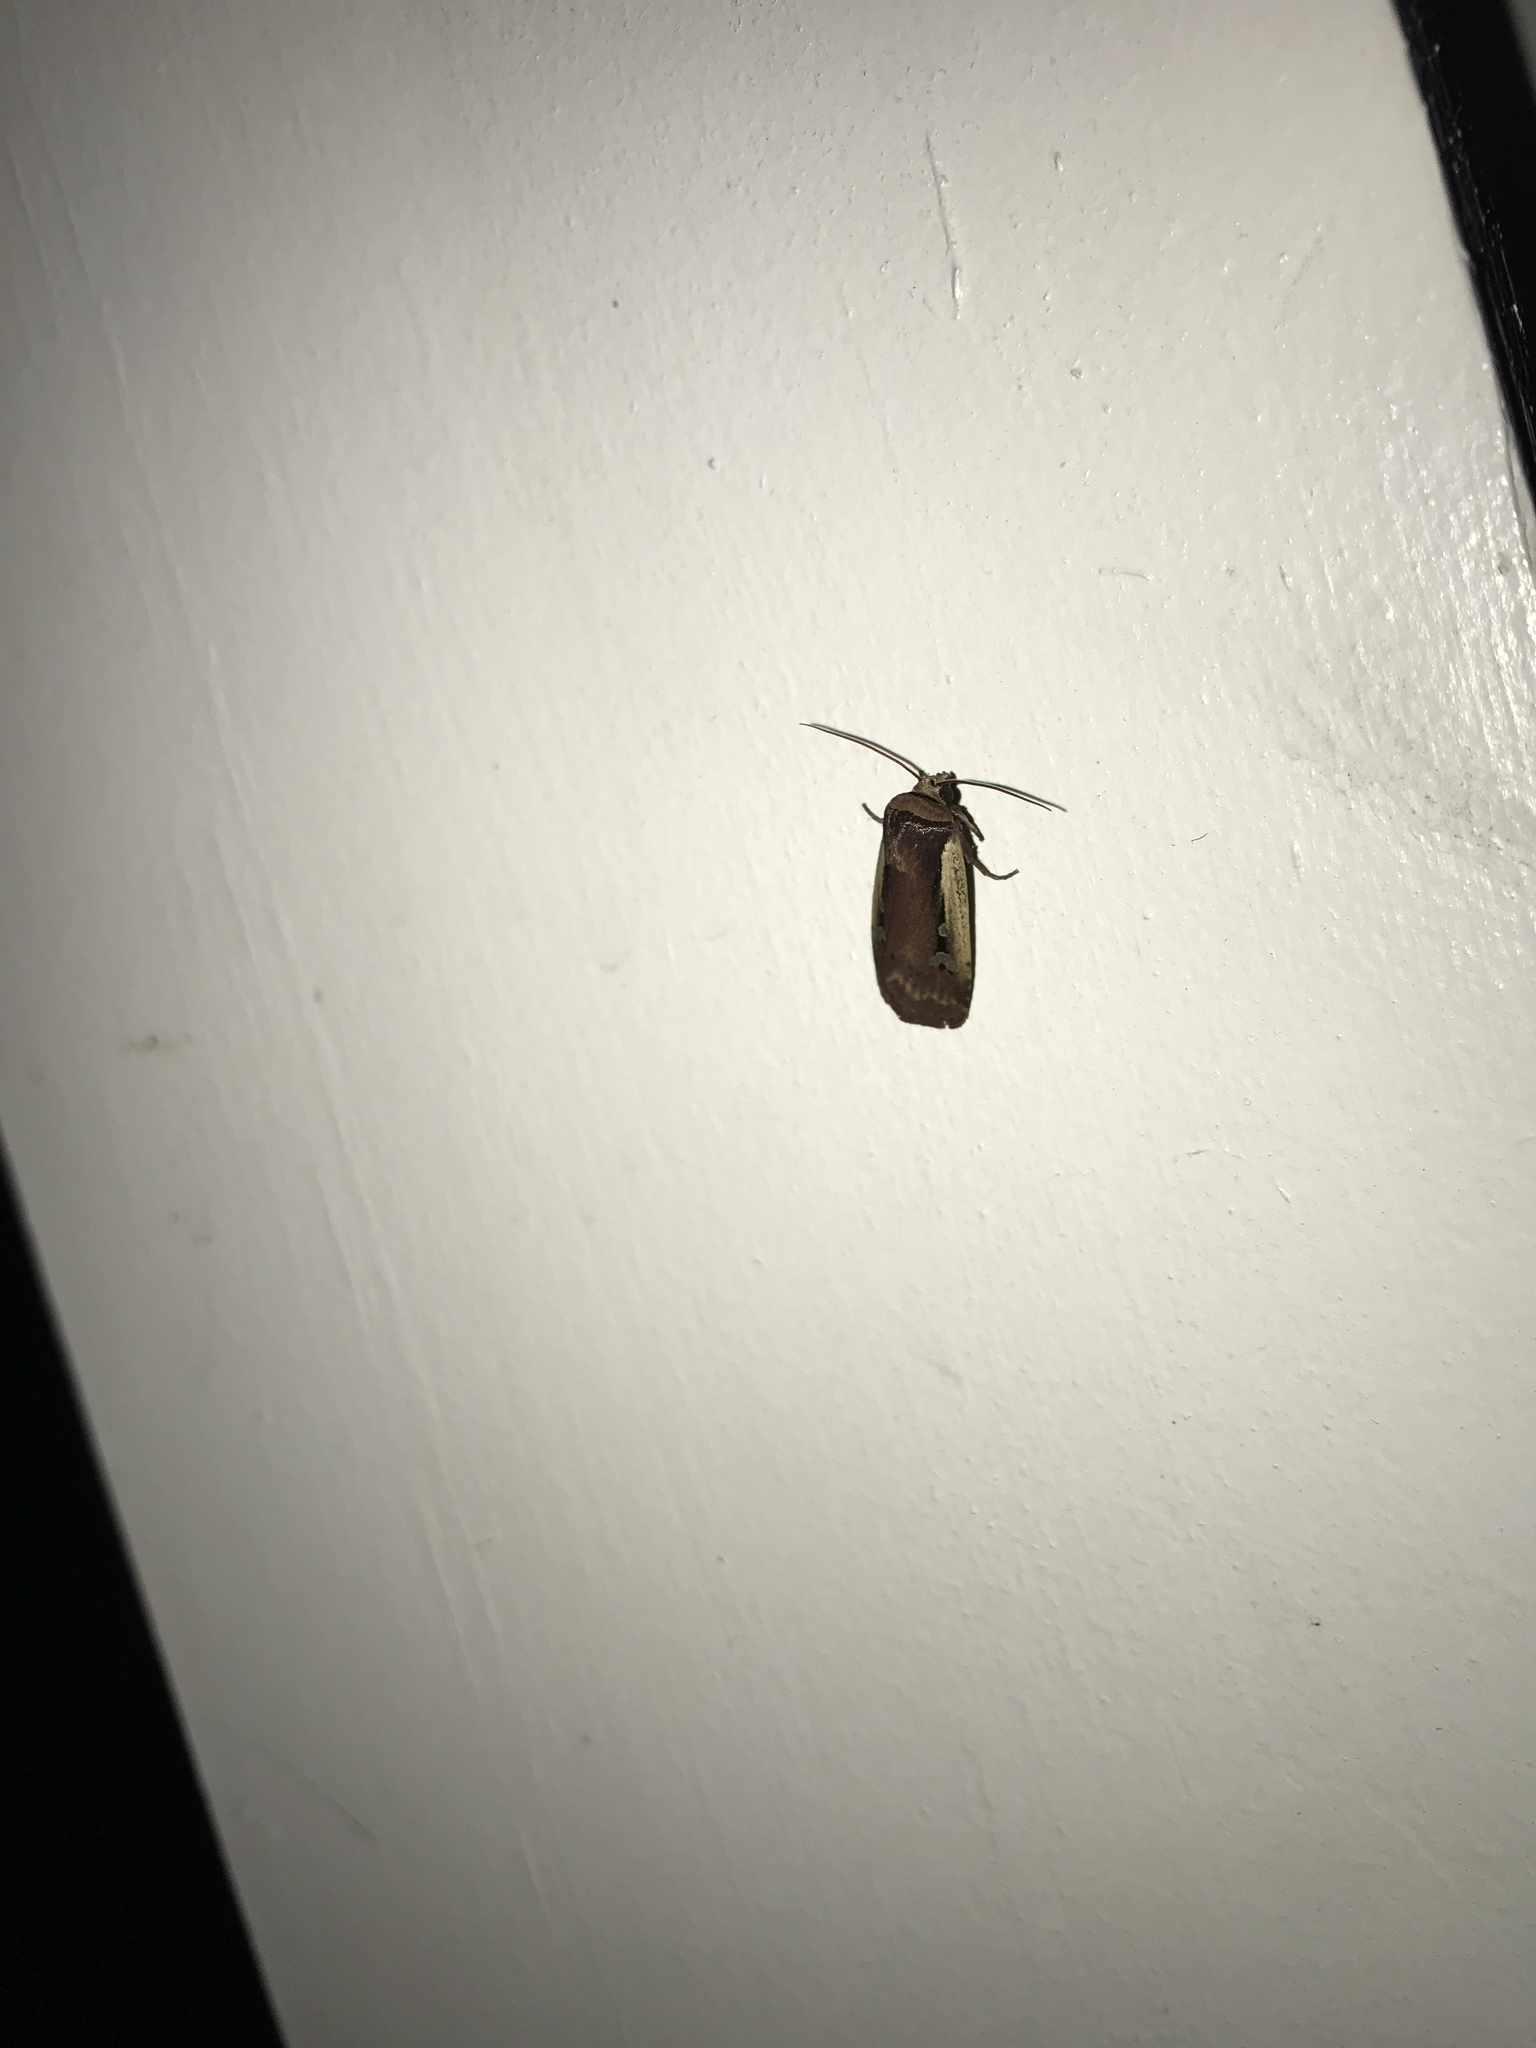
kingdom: Animalia
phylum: Arthropoda
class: Insecta
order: Lepidoptera
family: Noctuidae
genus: Ochropleura
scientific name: Ochropleura implecta
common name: Flame-shouldered dart
